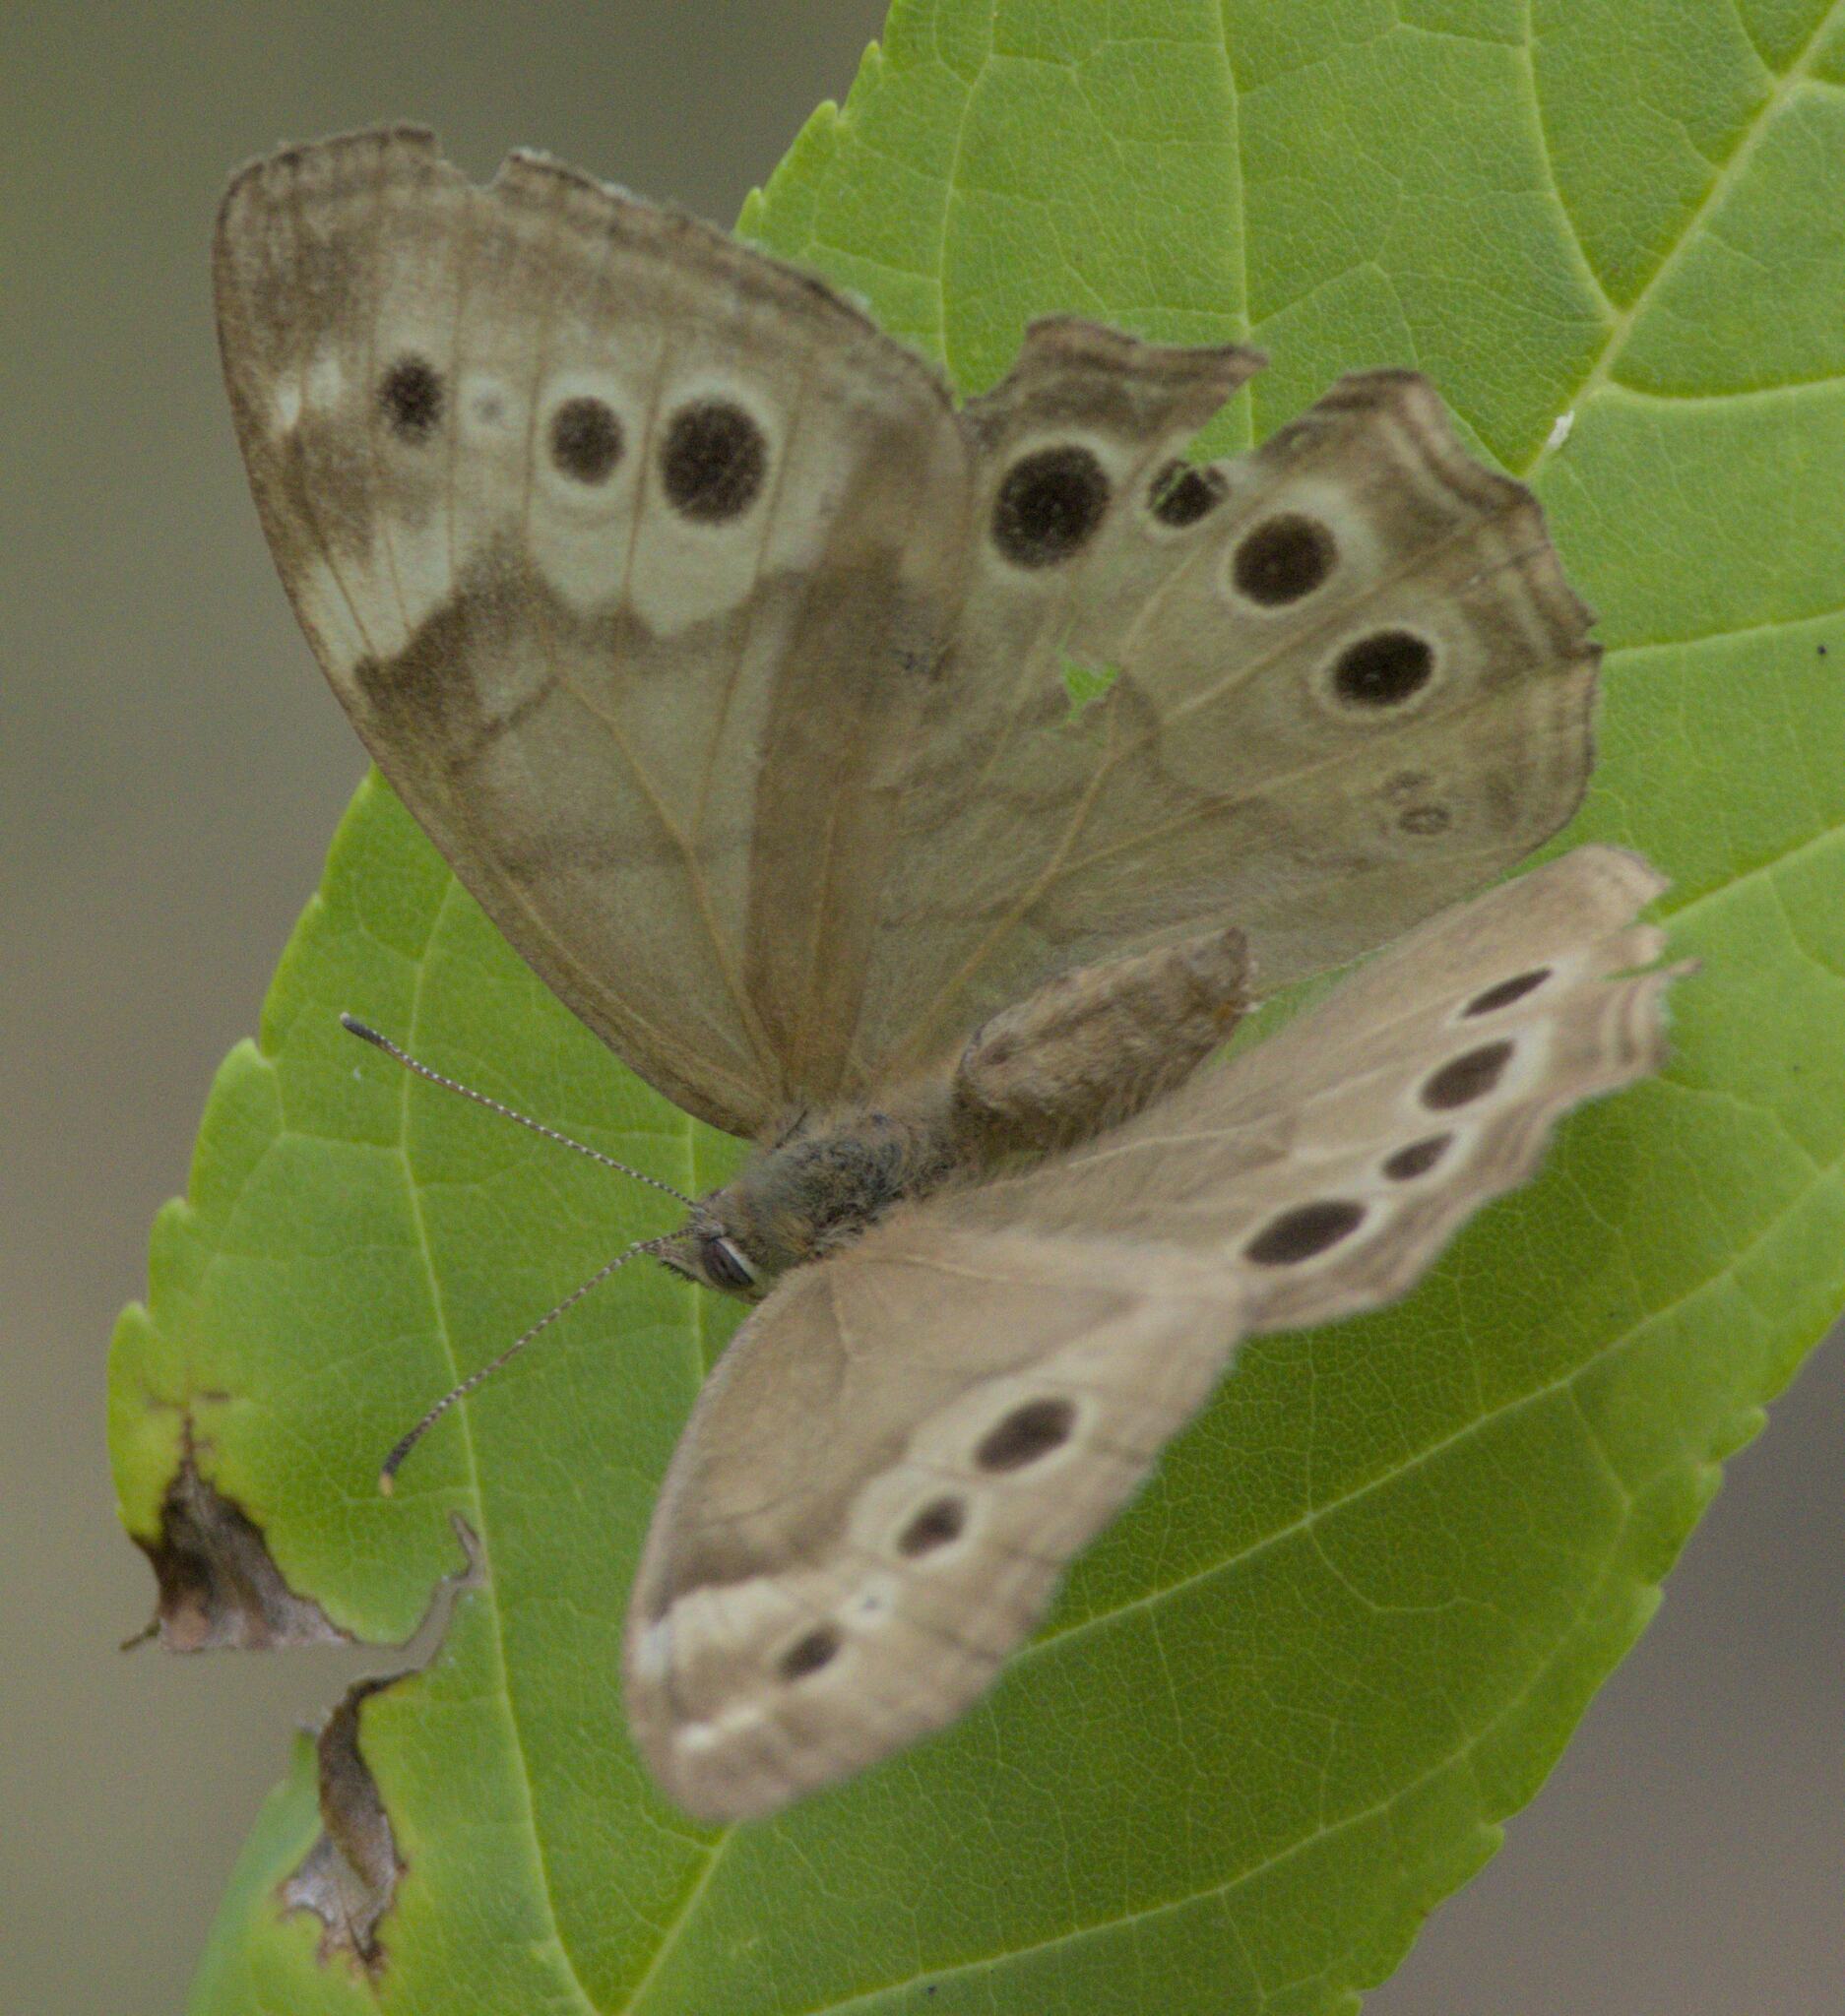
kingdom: Animalia
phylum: Arthropoda
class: Insecta
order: Lepidoptera
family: Nymphalidae
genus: Lethe
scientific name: Lethe anthedon
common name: Northern pearly-eye
